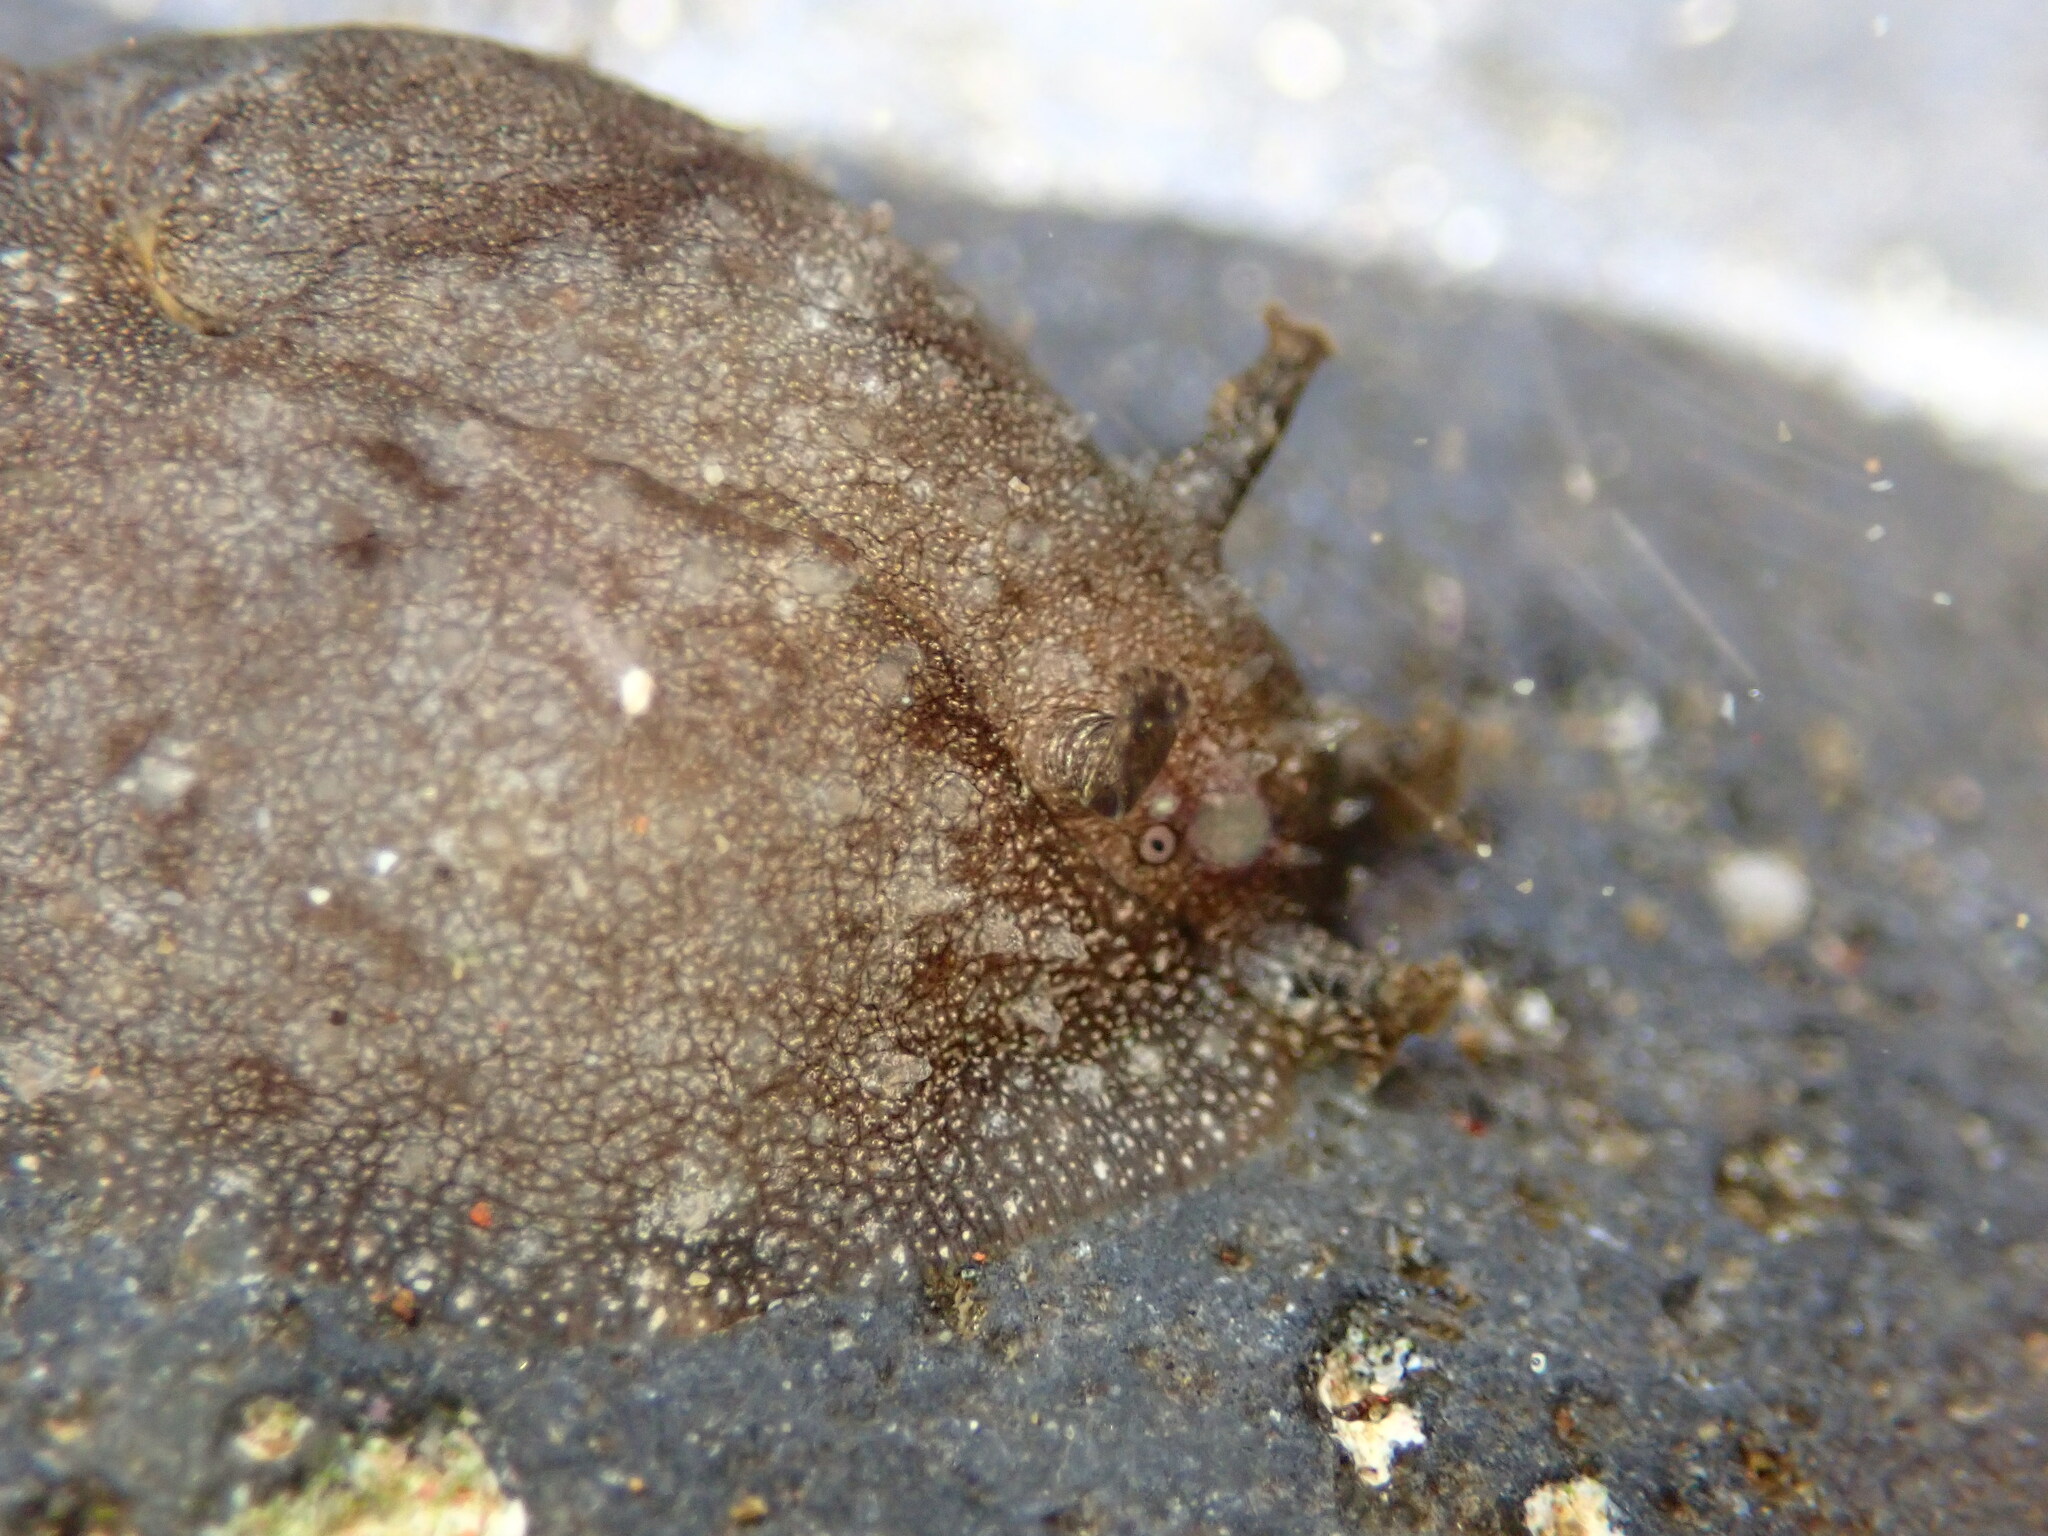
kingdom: Animalia
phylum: Mollusca
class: Gastropoda
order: Aplysiida
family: Aplysiidae
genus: Dolabrifera
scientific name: Dolabrifera dolabrifera
